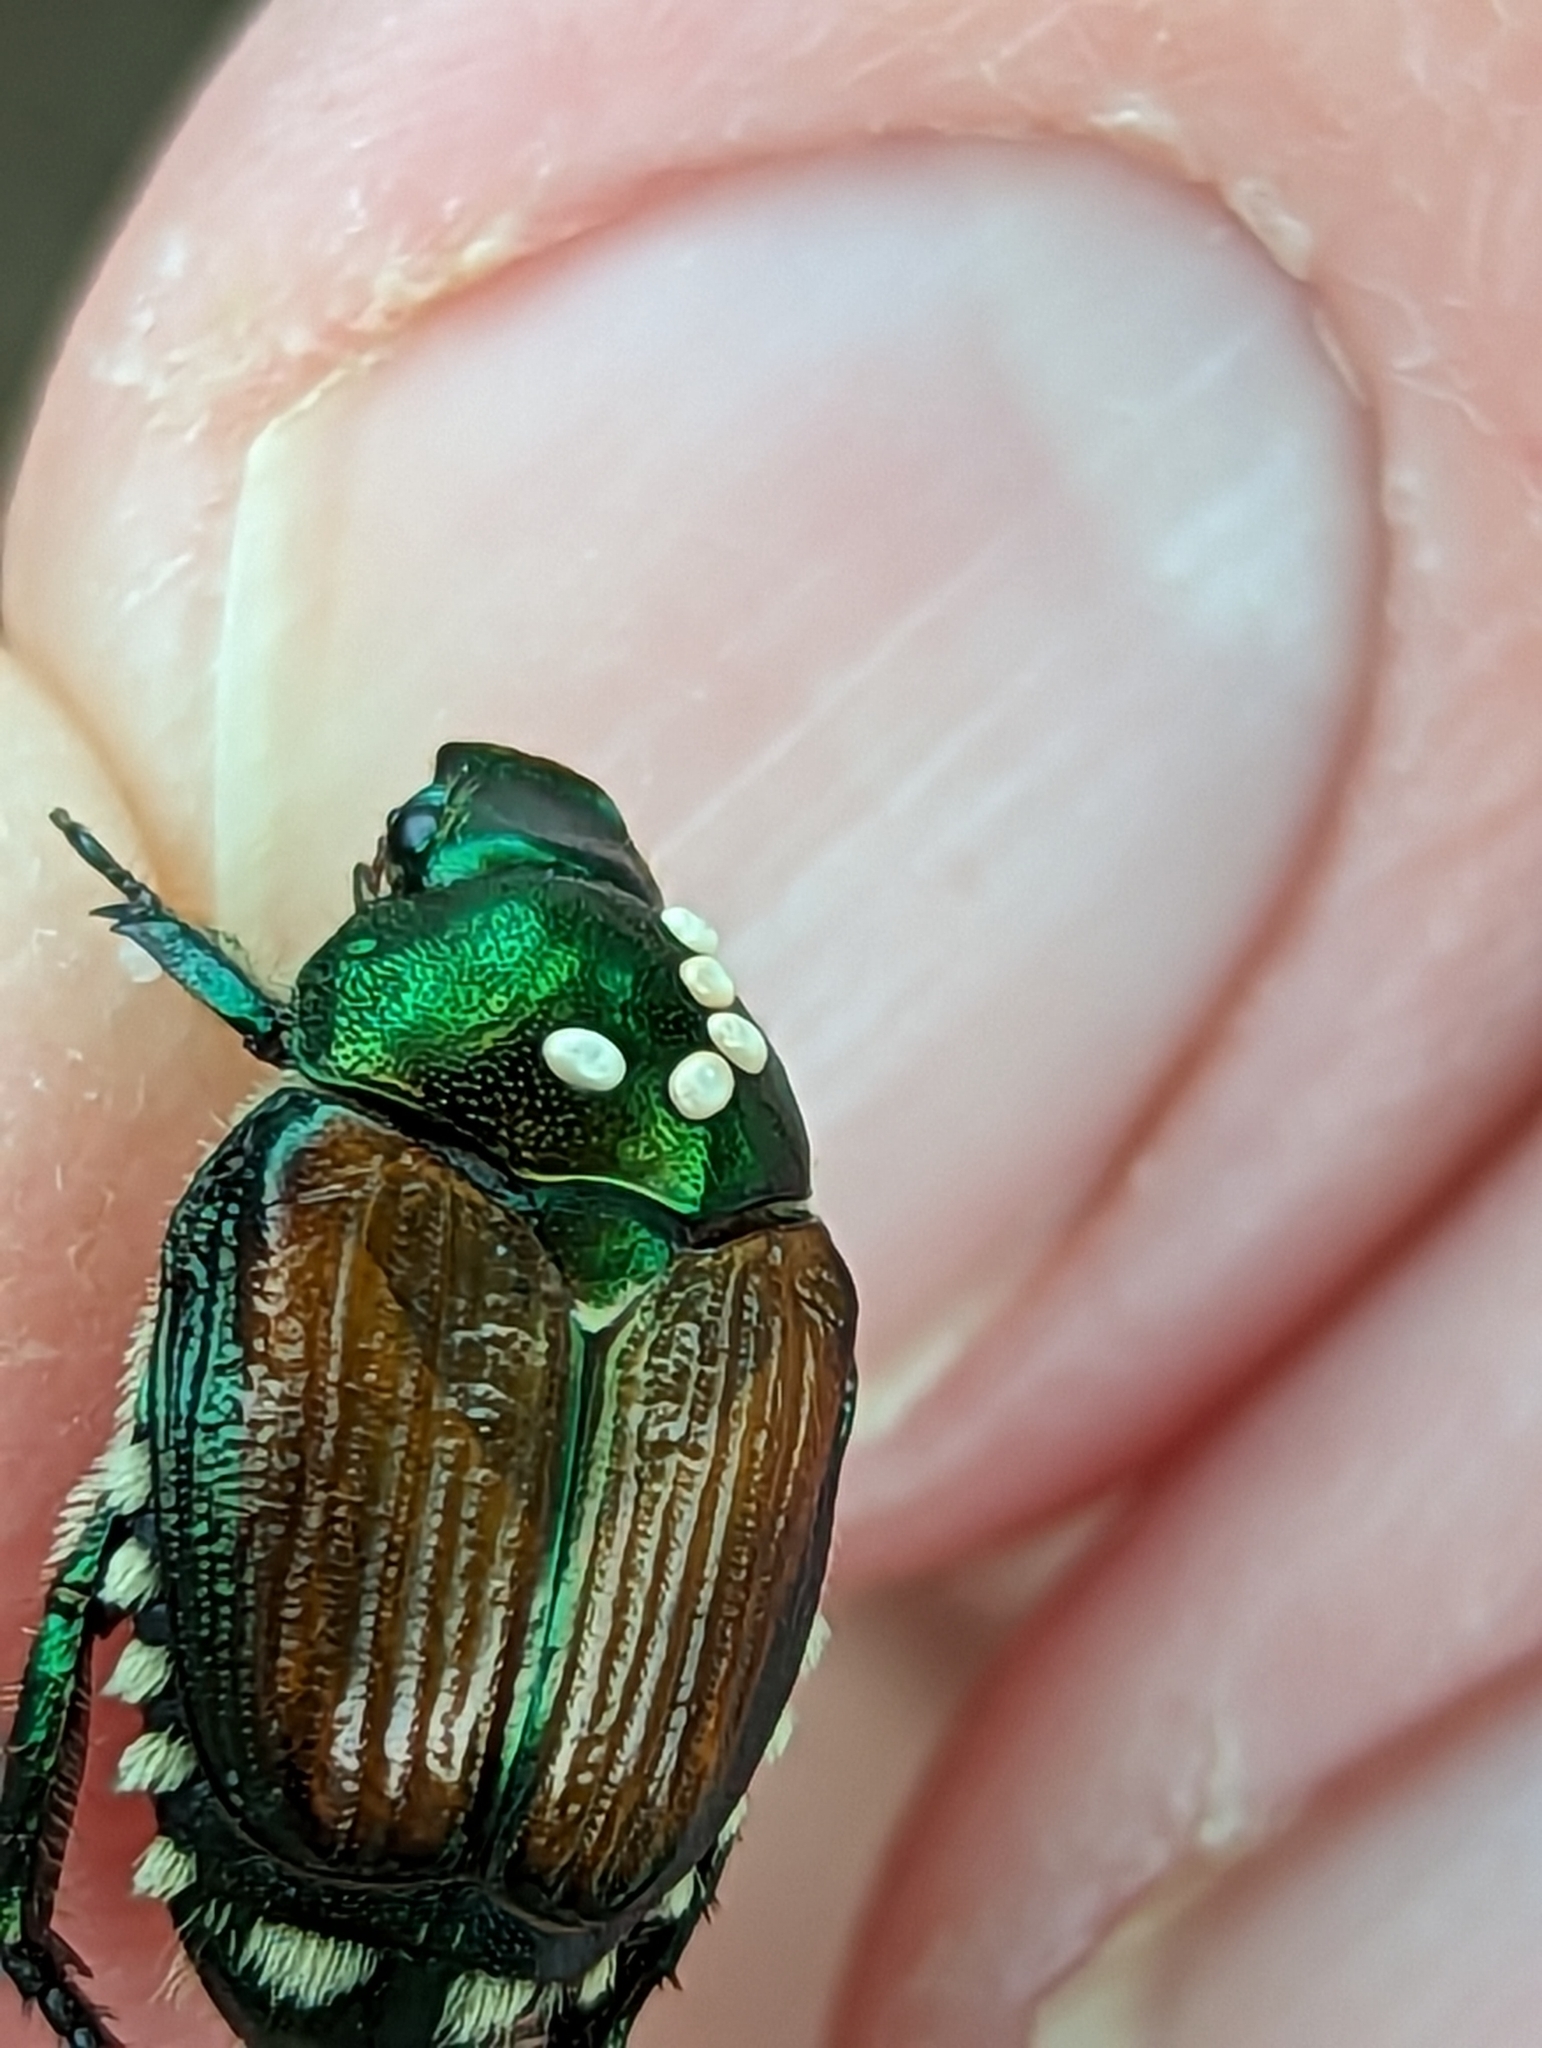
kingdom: Animalia
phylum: Arthropoda
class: Insecta
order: Diptera
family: Tachinidae
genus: Istocheta
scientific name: Istocheta aldrichi
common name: Parasitic wasp
